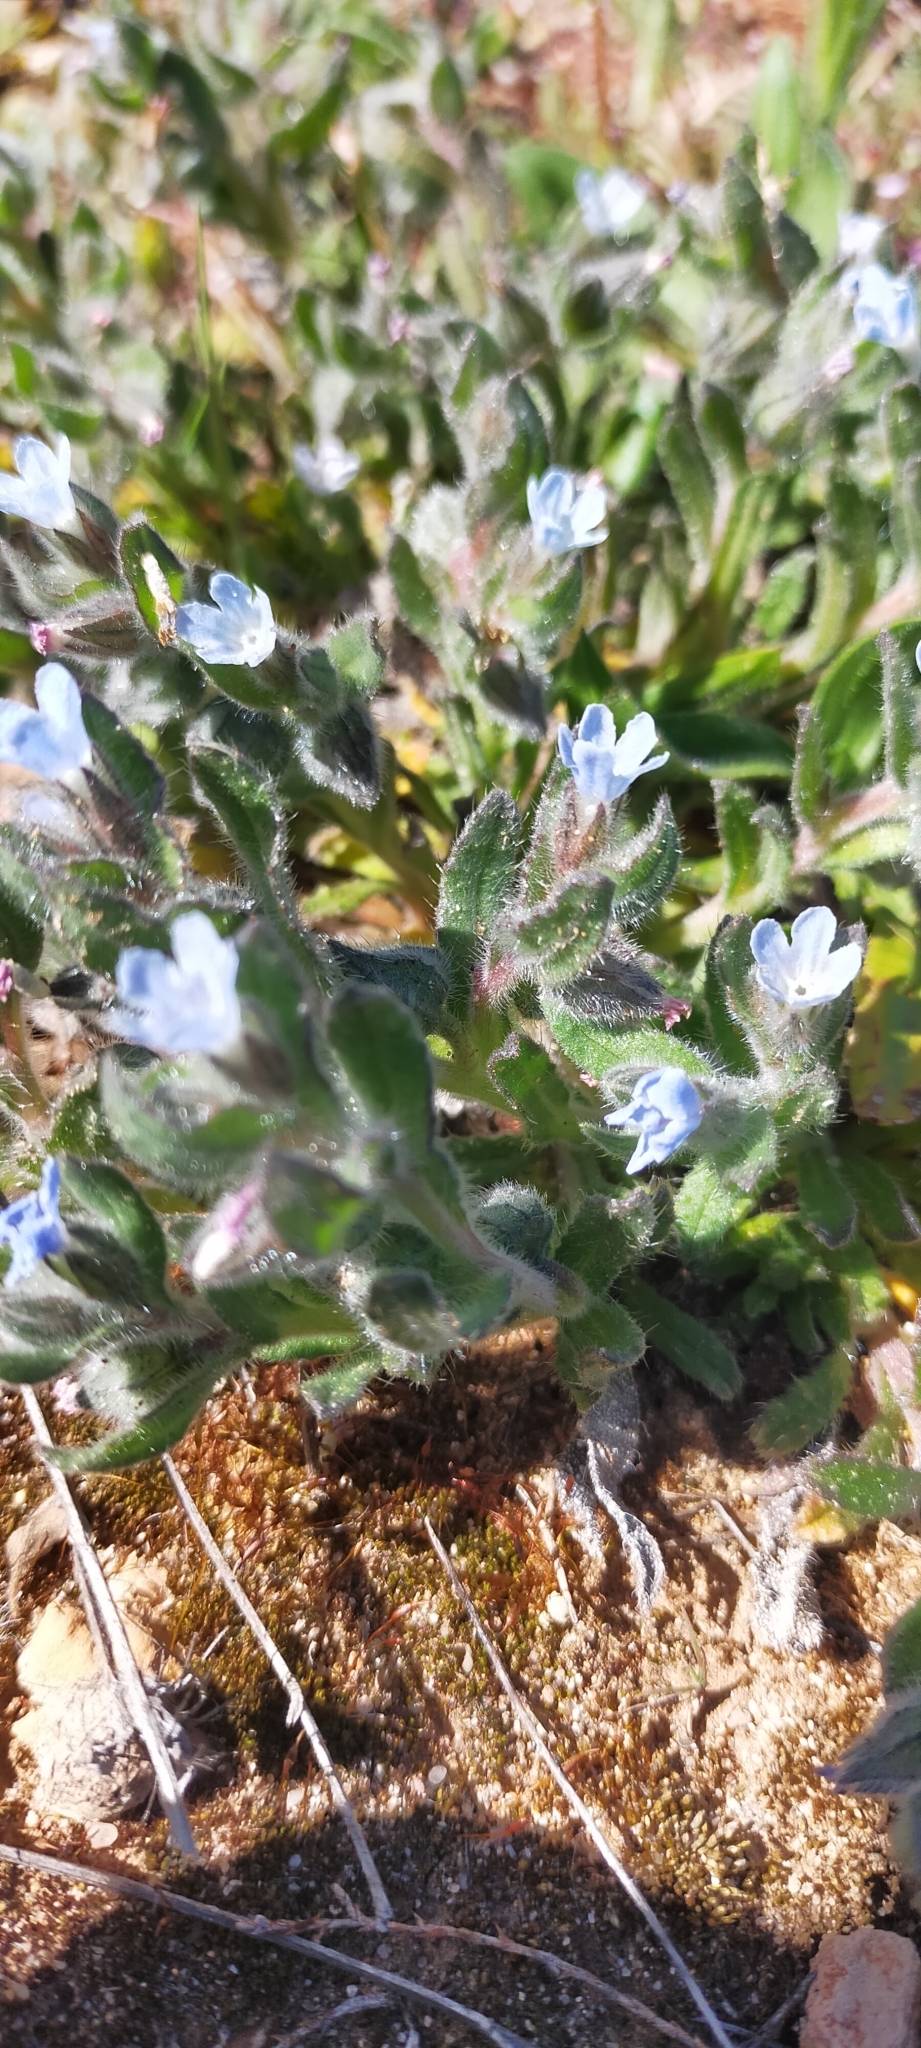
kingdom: Plantae
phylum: Tracheophyta
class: Magnoliopsida
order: Boraginales
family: Boraginaceae
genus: Nonea
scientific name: Nonea micrantha
